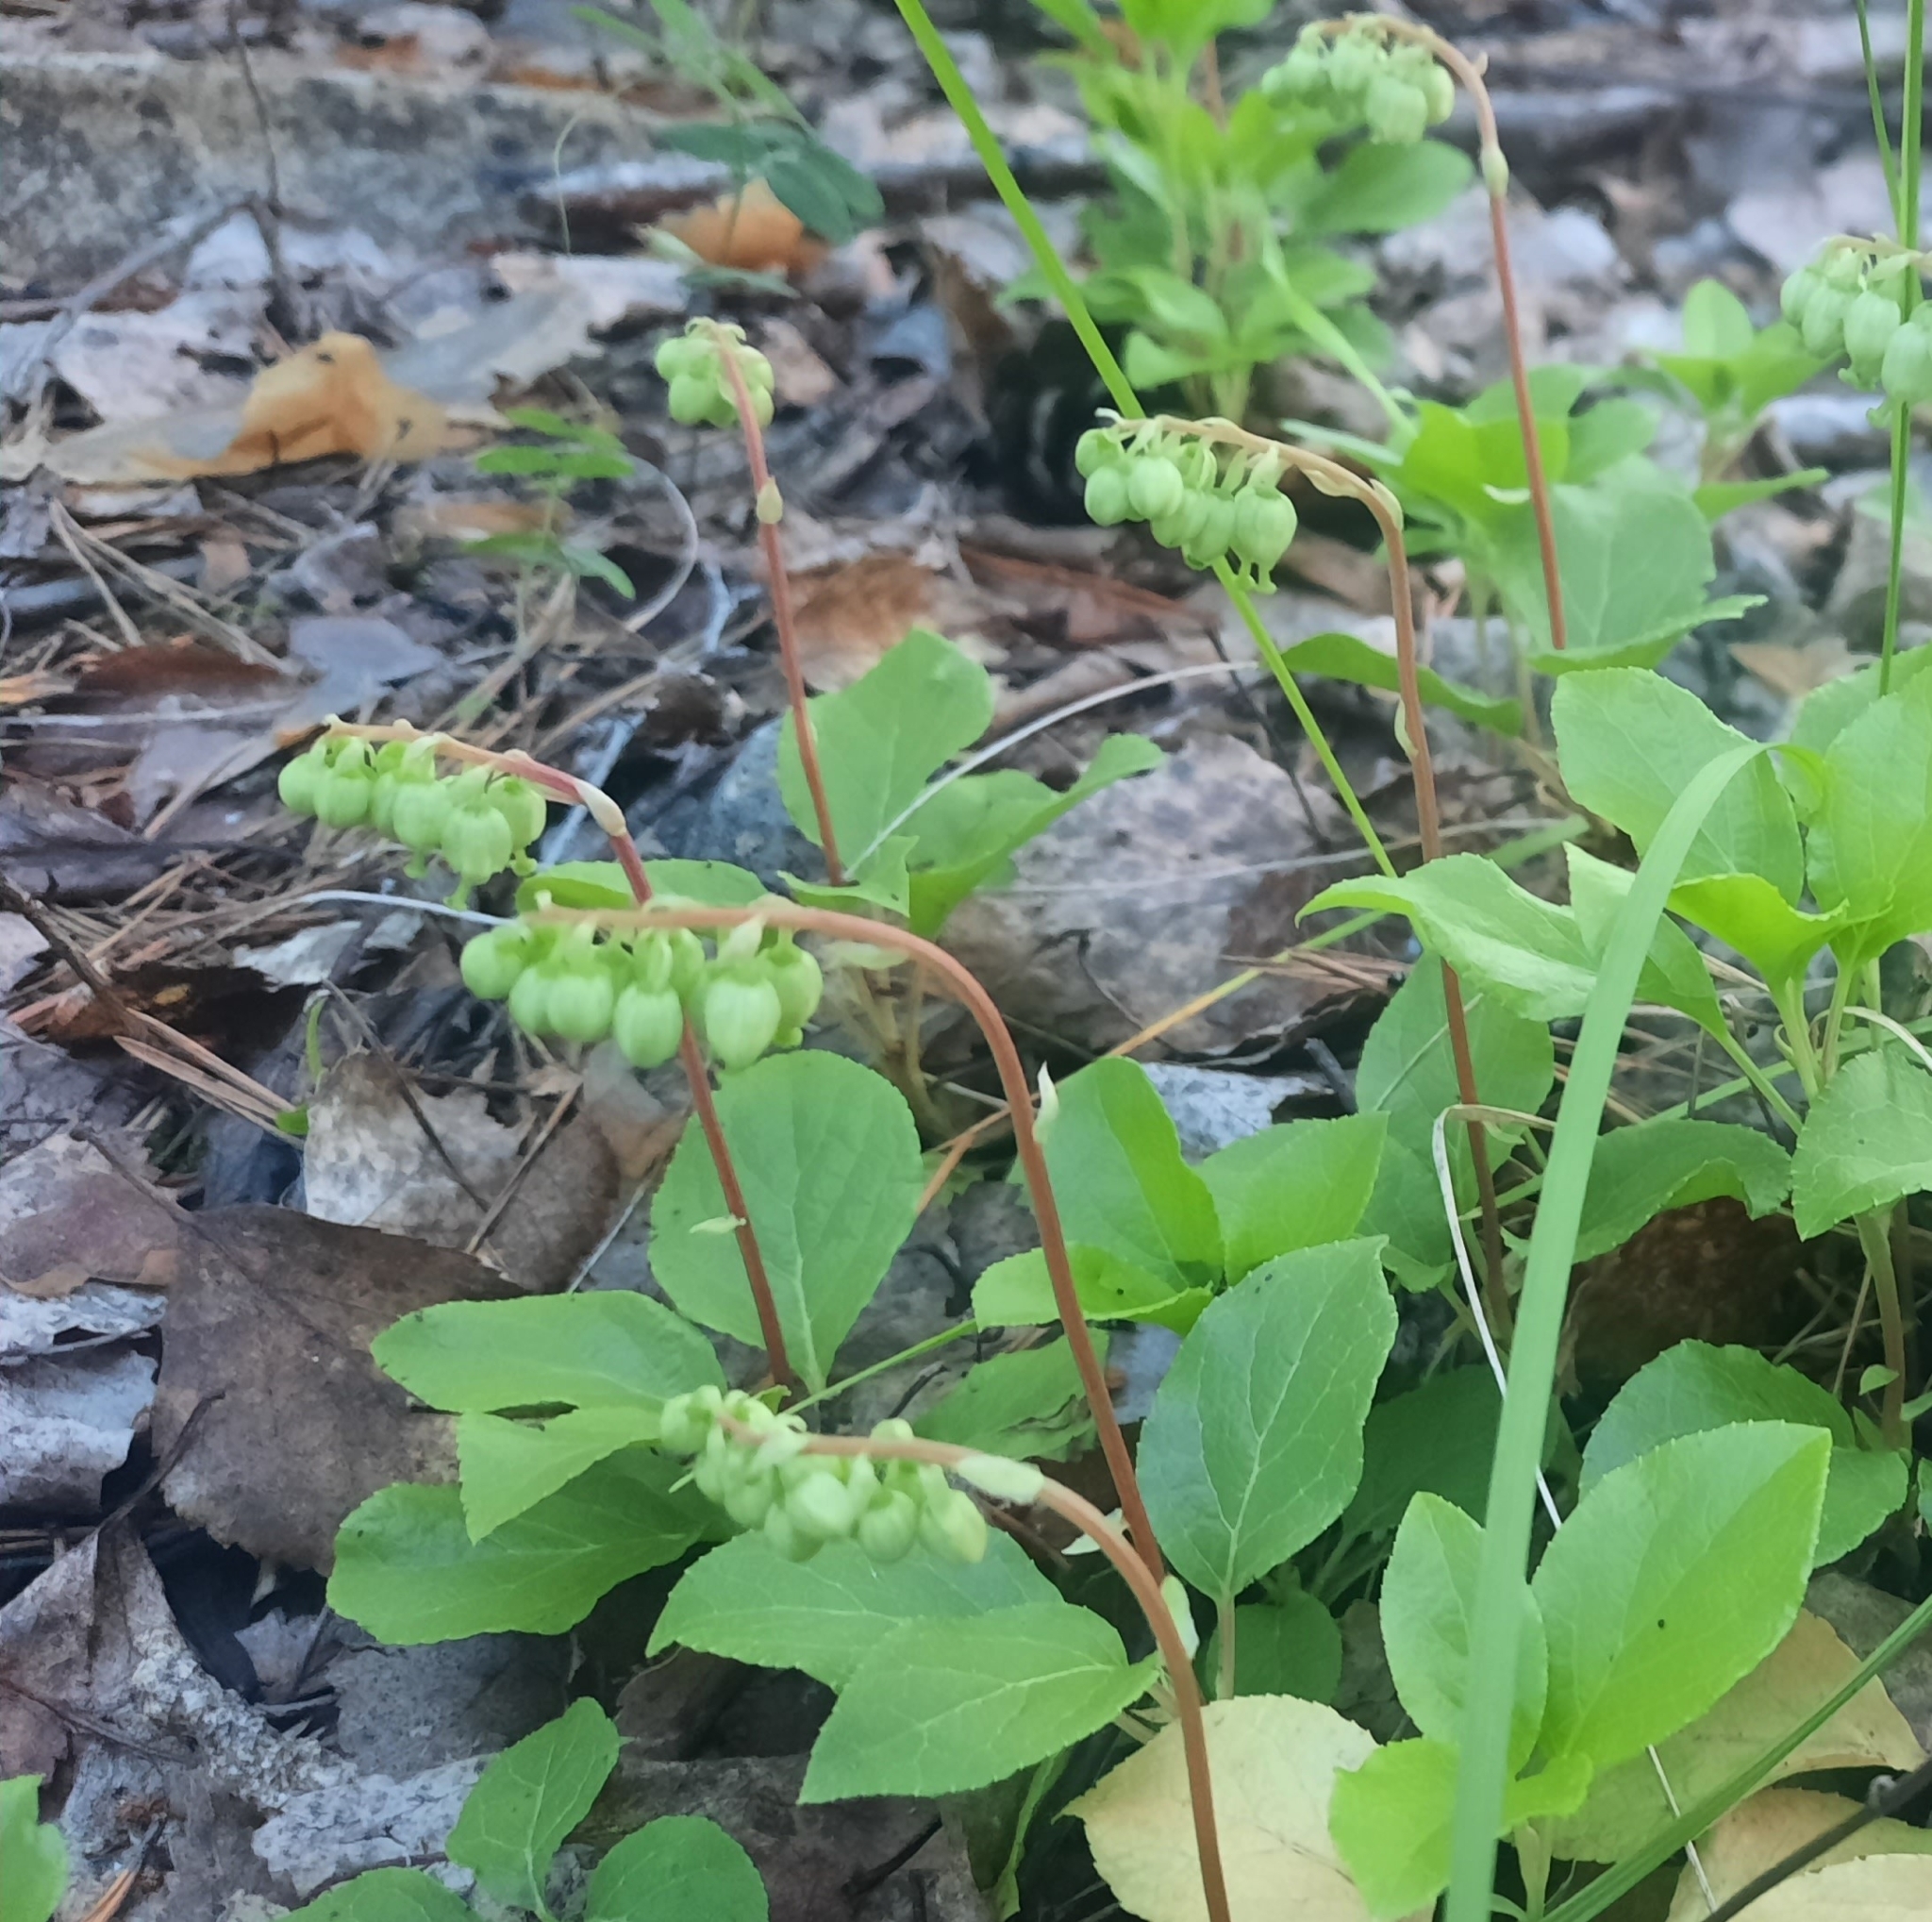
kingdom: Plantae
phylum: Tracheophyta
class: Magnoliopsida
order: Ericales
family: Ericaceae
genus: Orthilia
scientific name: Orthilia secunda
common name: One-sided orthilia
